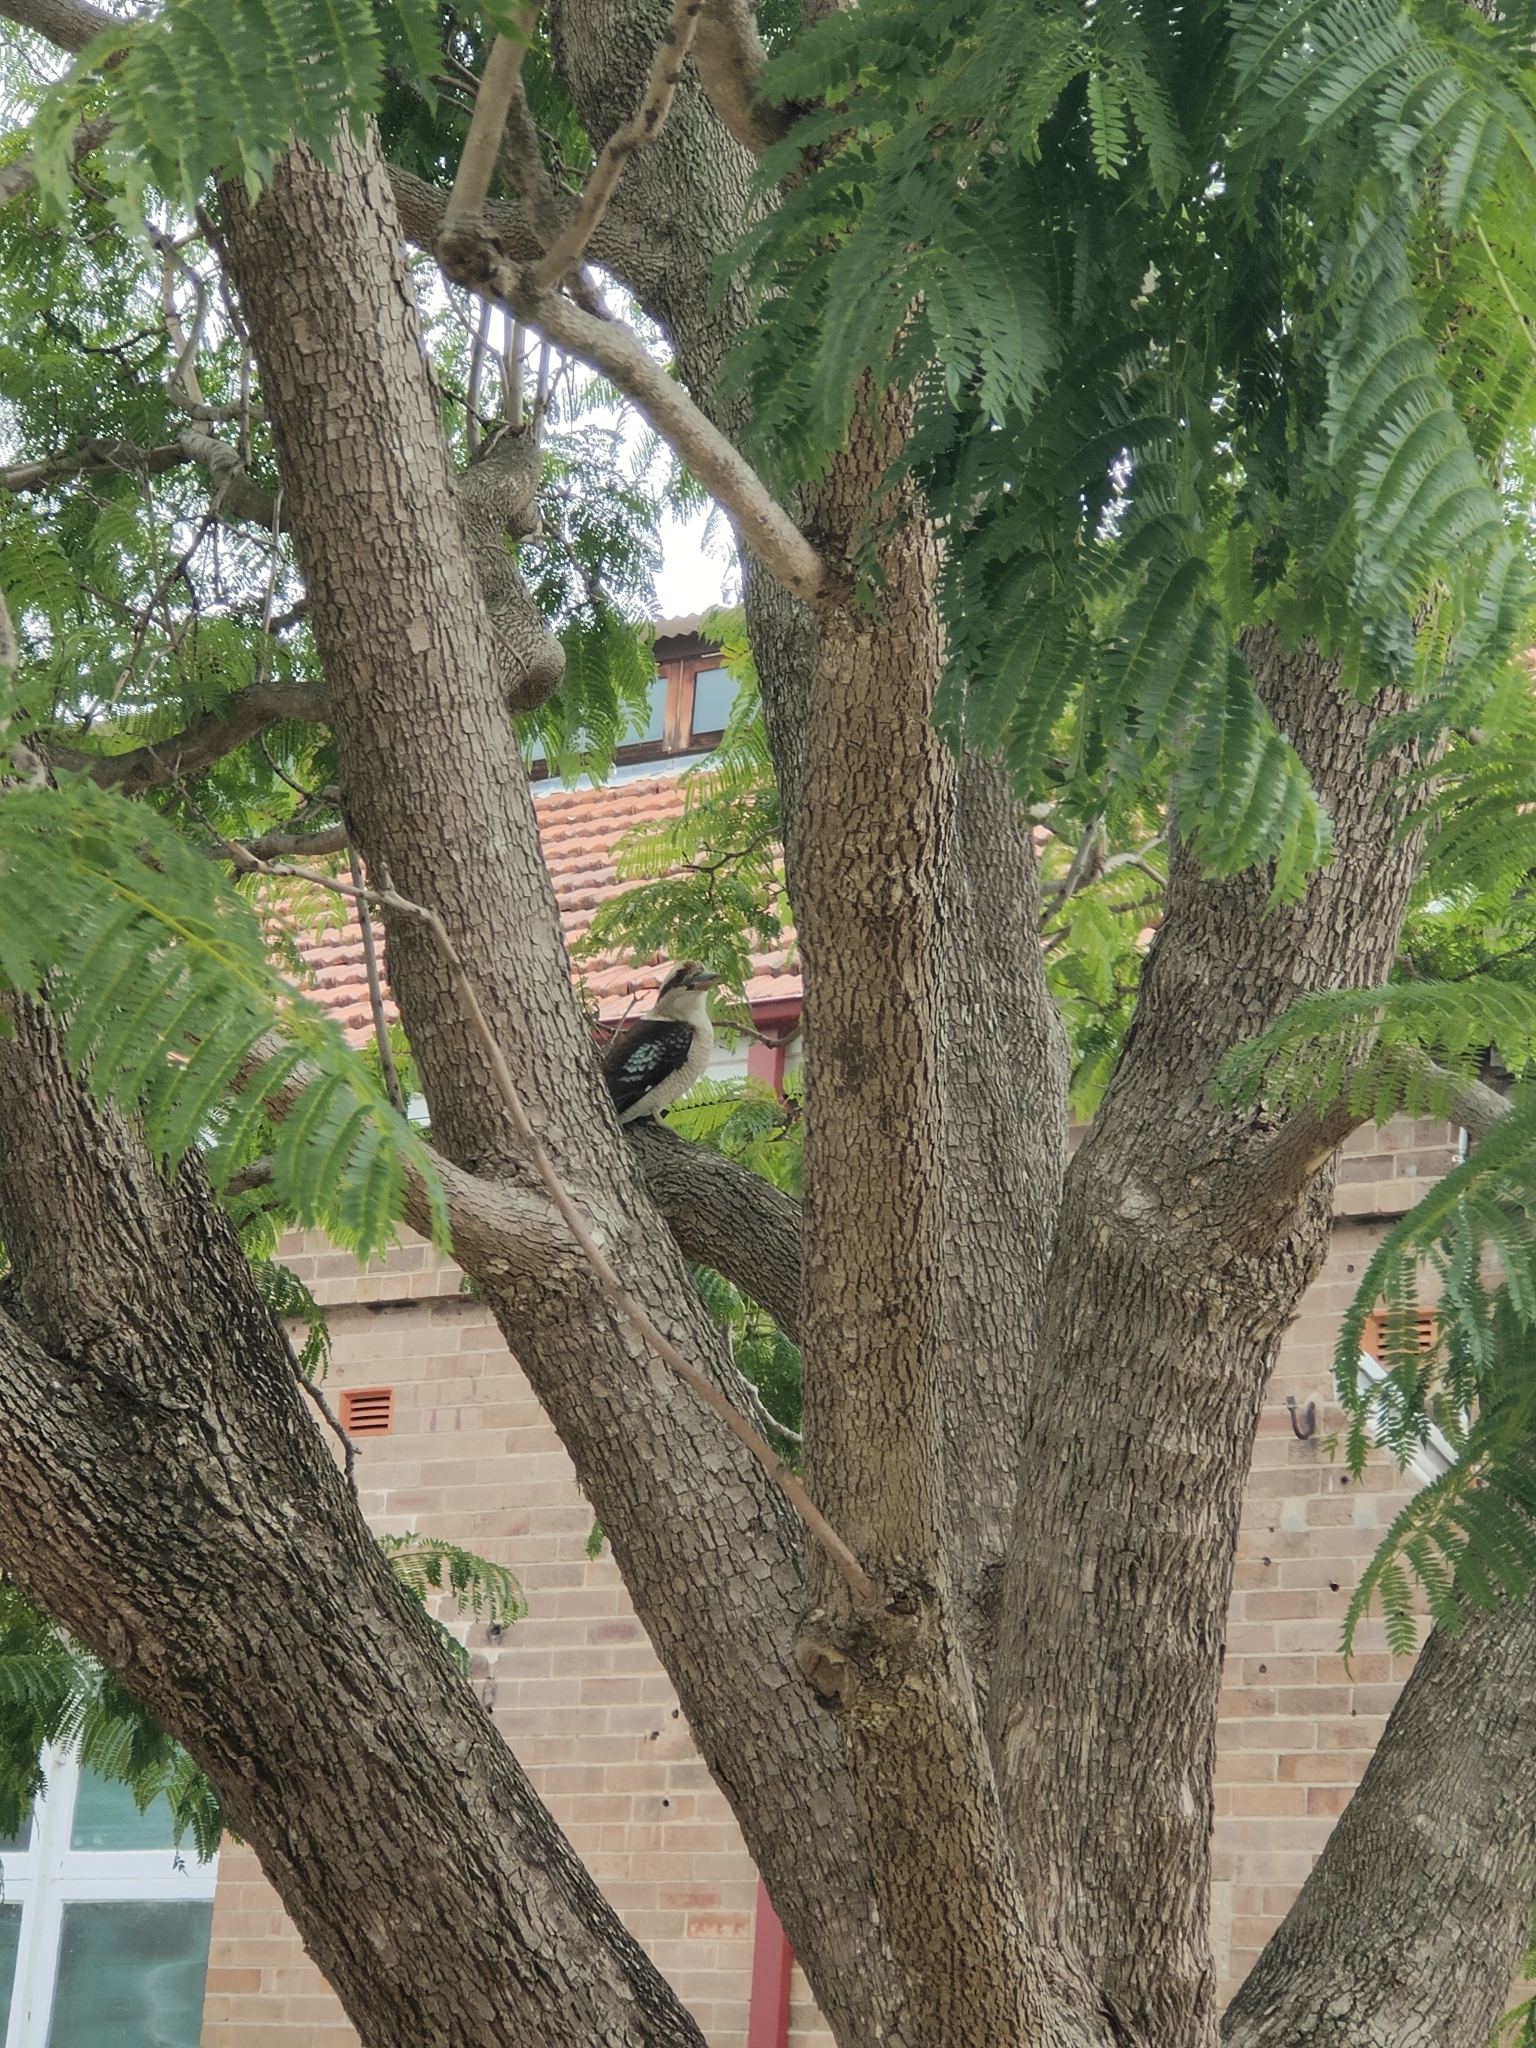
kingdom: Animalia
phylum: Chordata
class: Aves
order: Coraciiformes
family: Alcedinidae
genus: Dacelo
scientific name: Dacelo novaeguineae
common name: Laughing kookaburra
